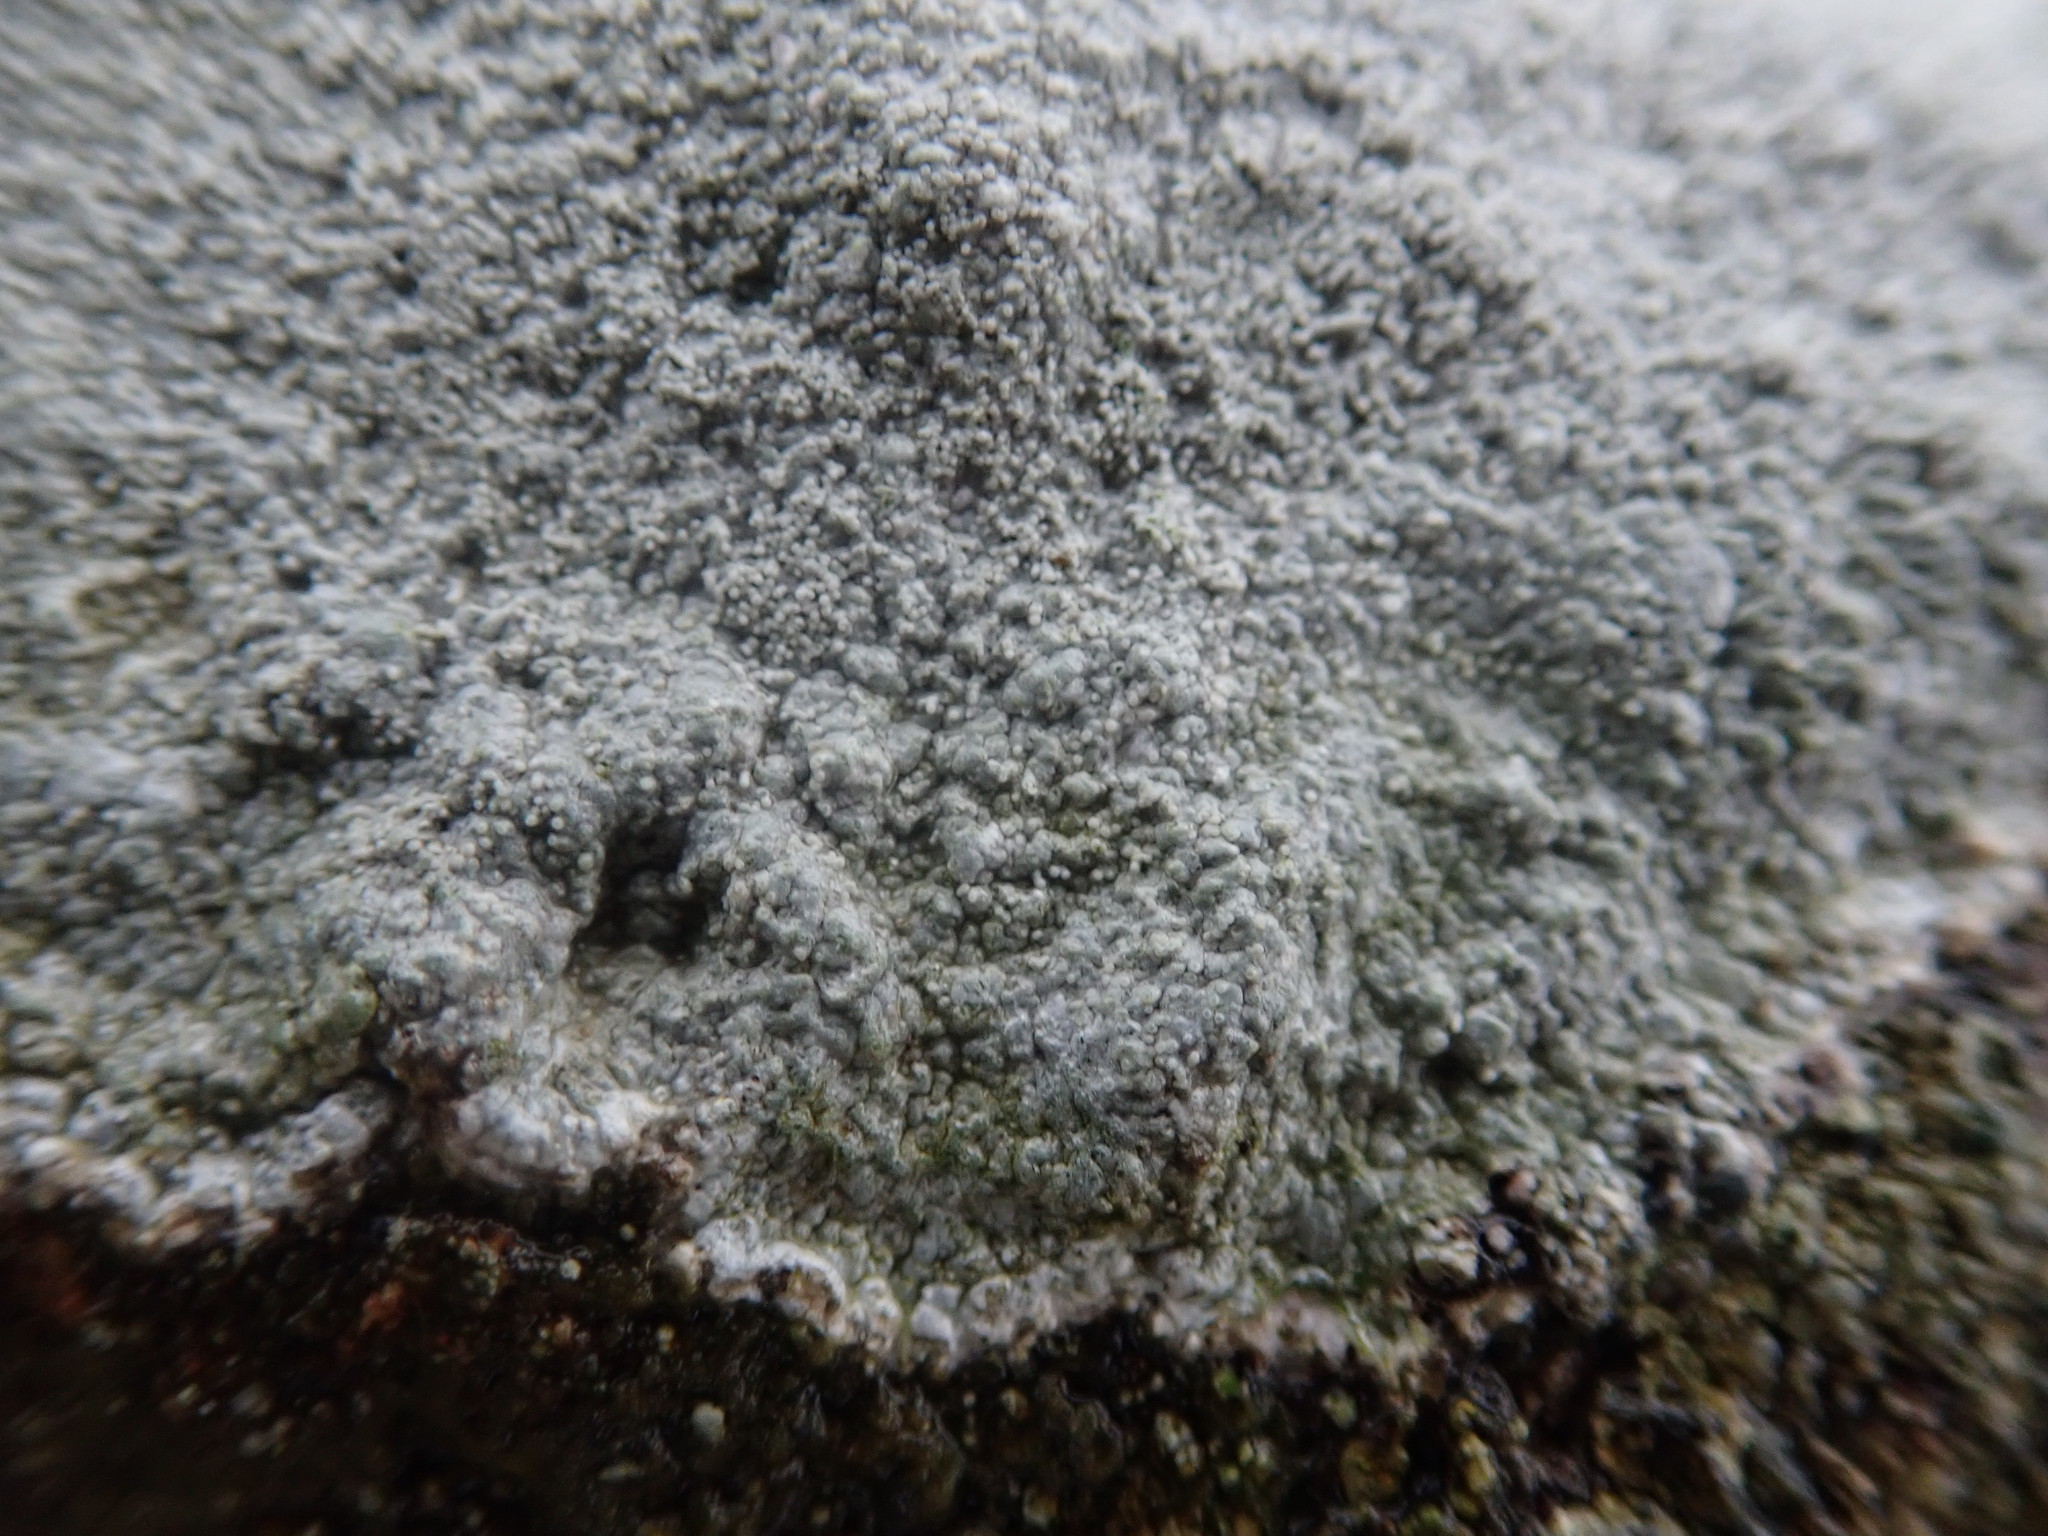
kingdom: Fungi
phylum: Ascomycota
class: Lecanoromycetes
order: Pertusariales
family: Pertusariaceae
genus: Lepra
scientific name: Lepra corallina
